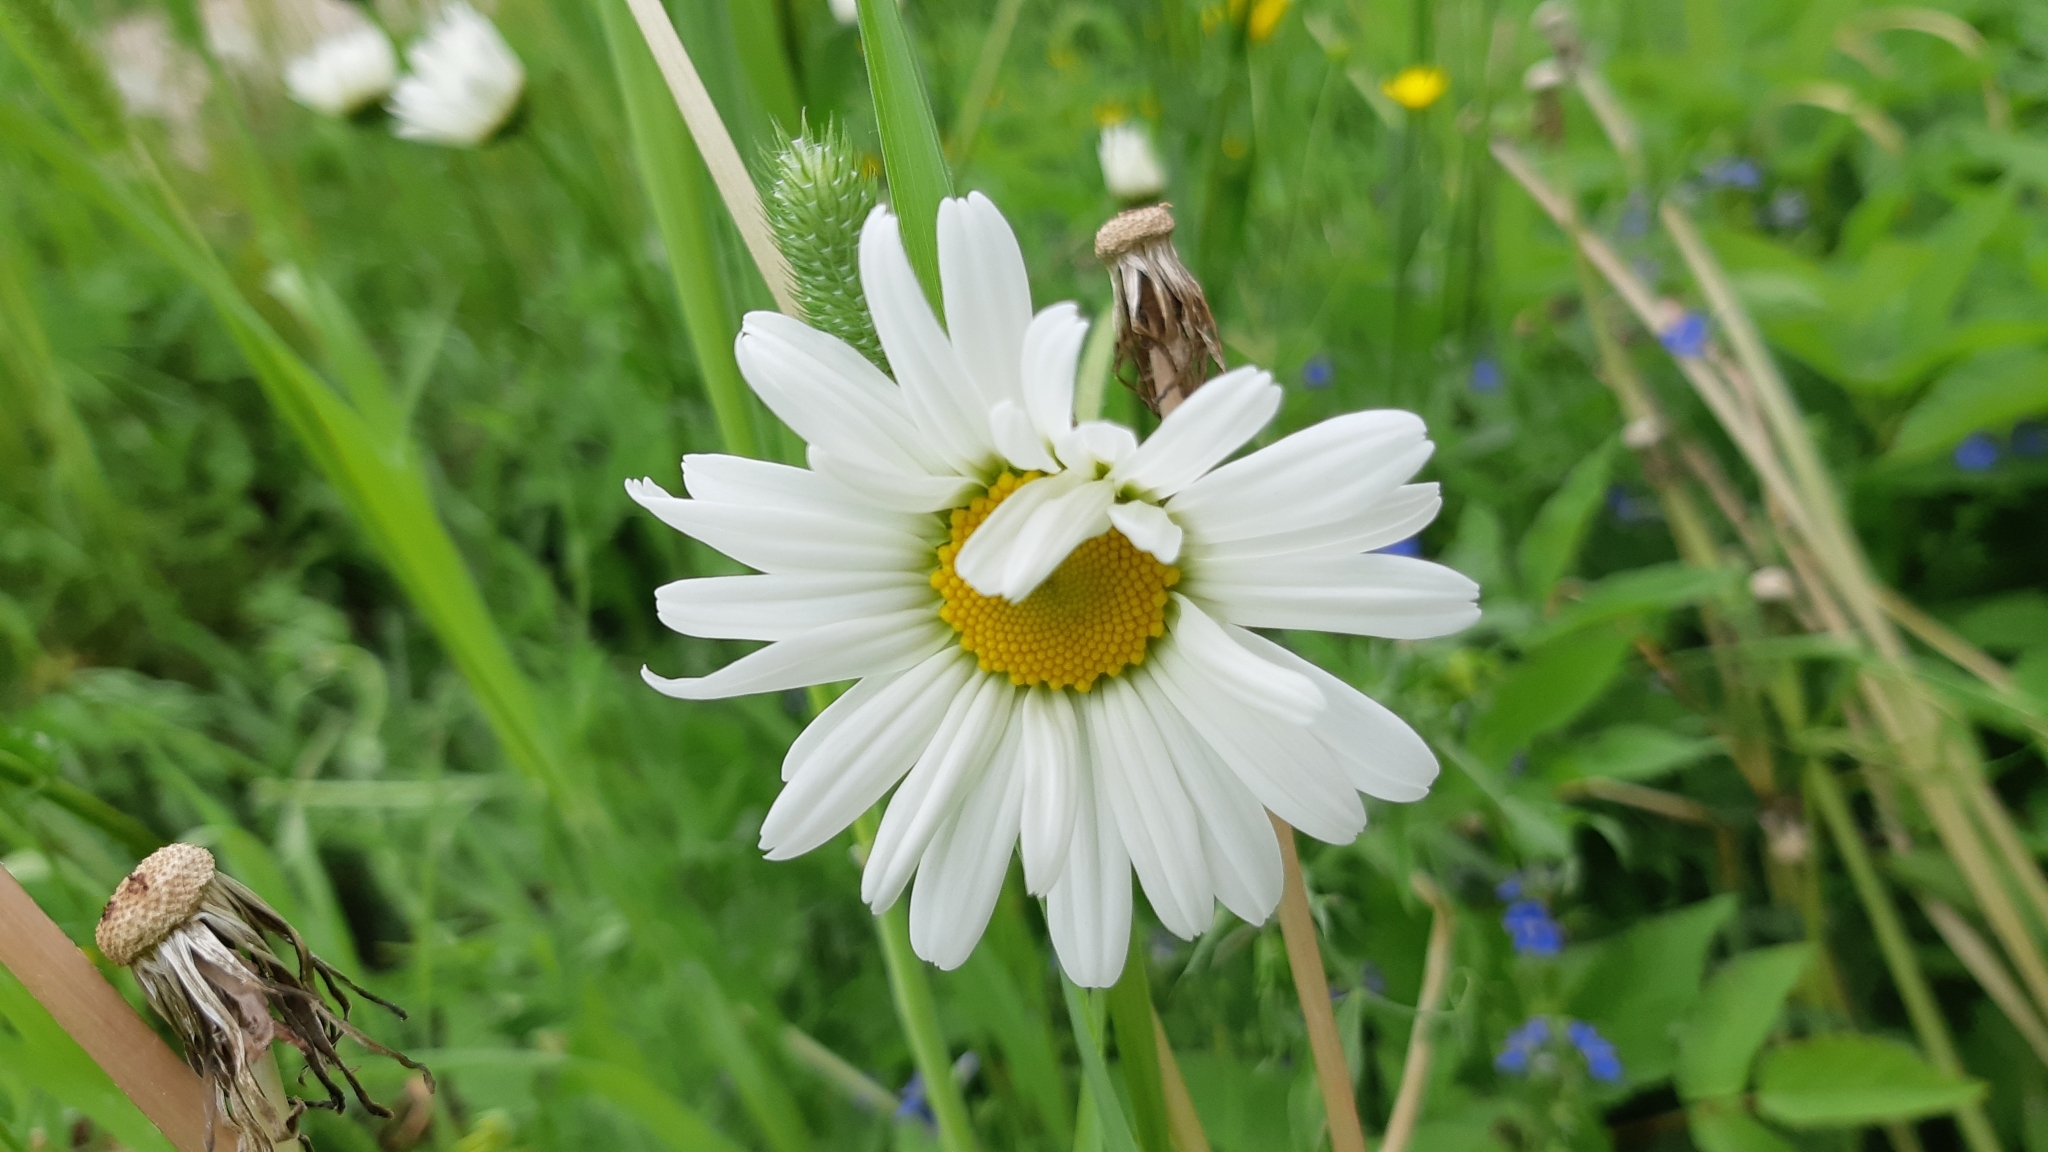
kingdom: Plantae
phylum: Tracheophyta
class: Magnoliopsida
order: Asterales
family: Asteraceae
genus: Leucanthemum
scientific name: Leucanthemum vulgare
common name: Oxeye daisy
